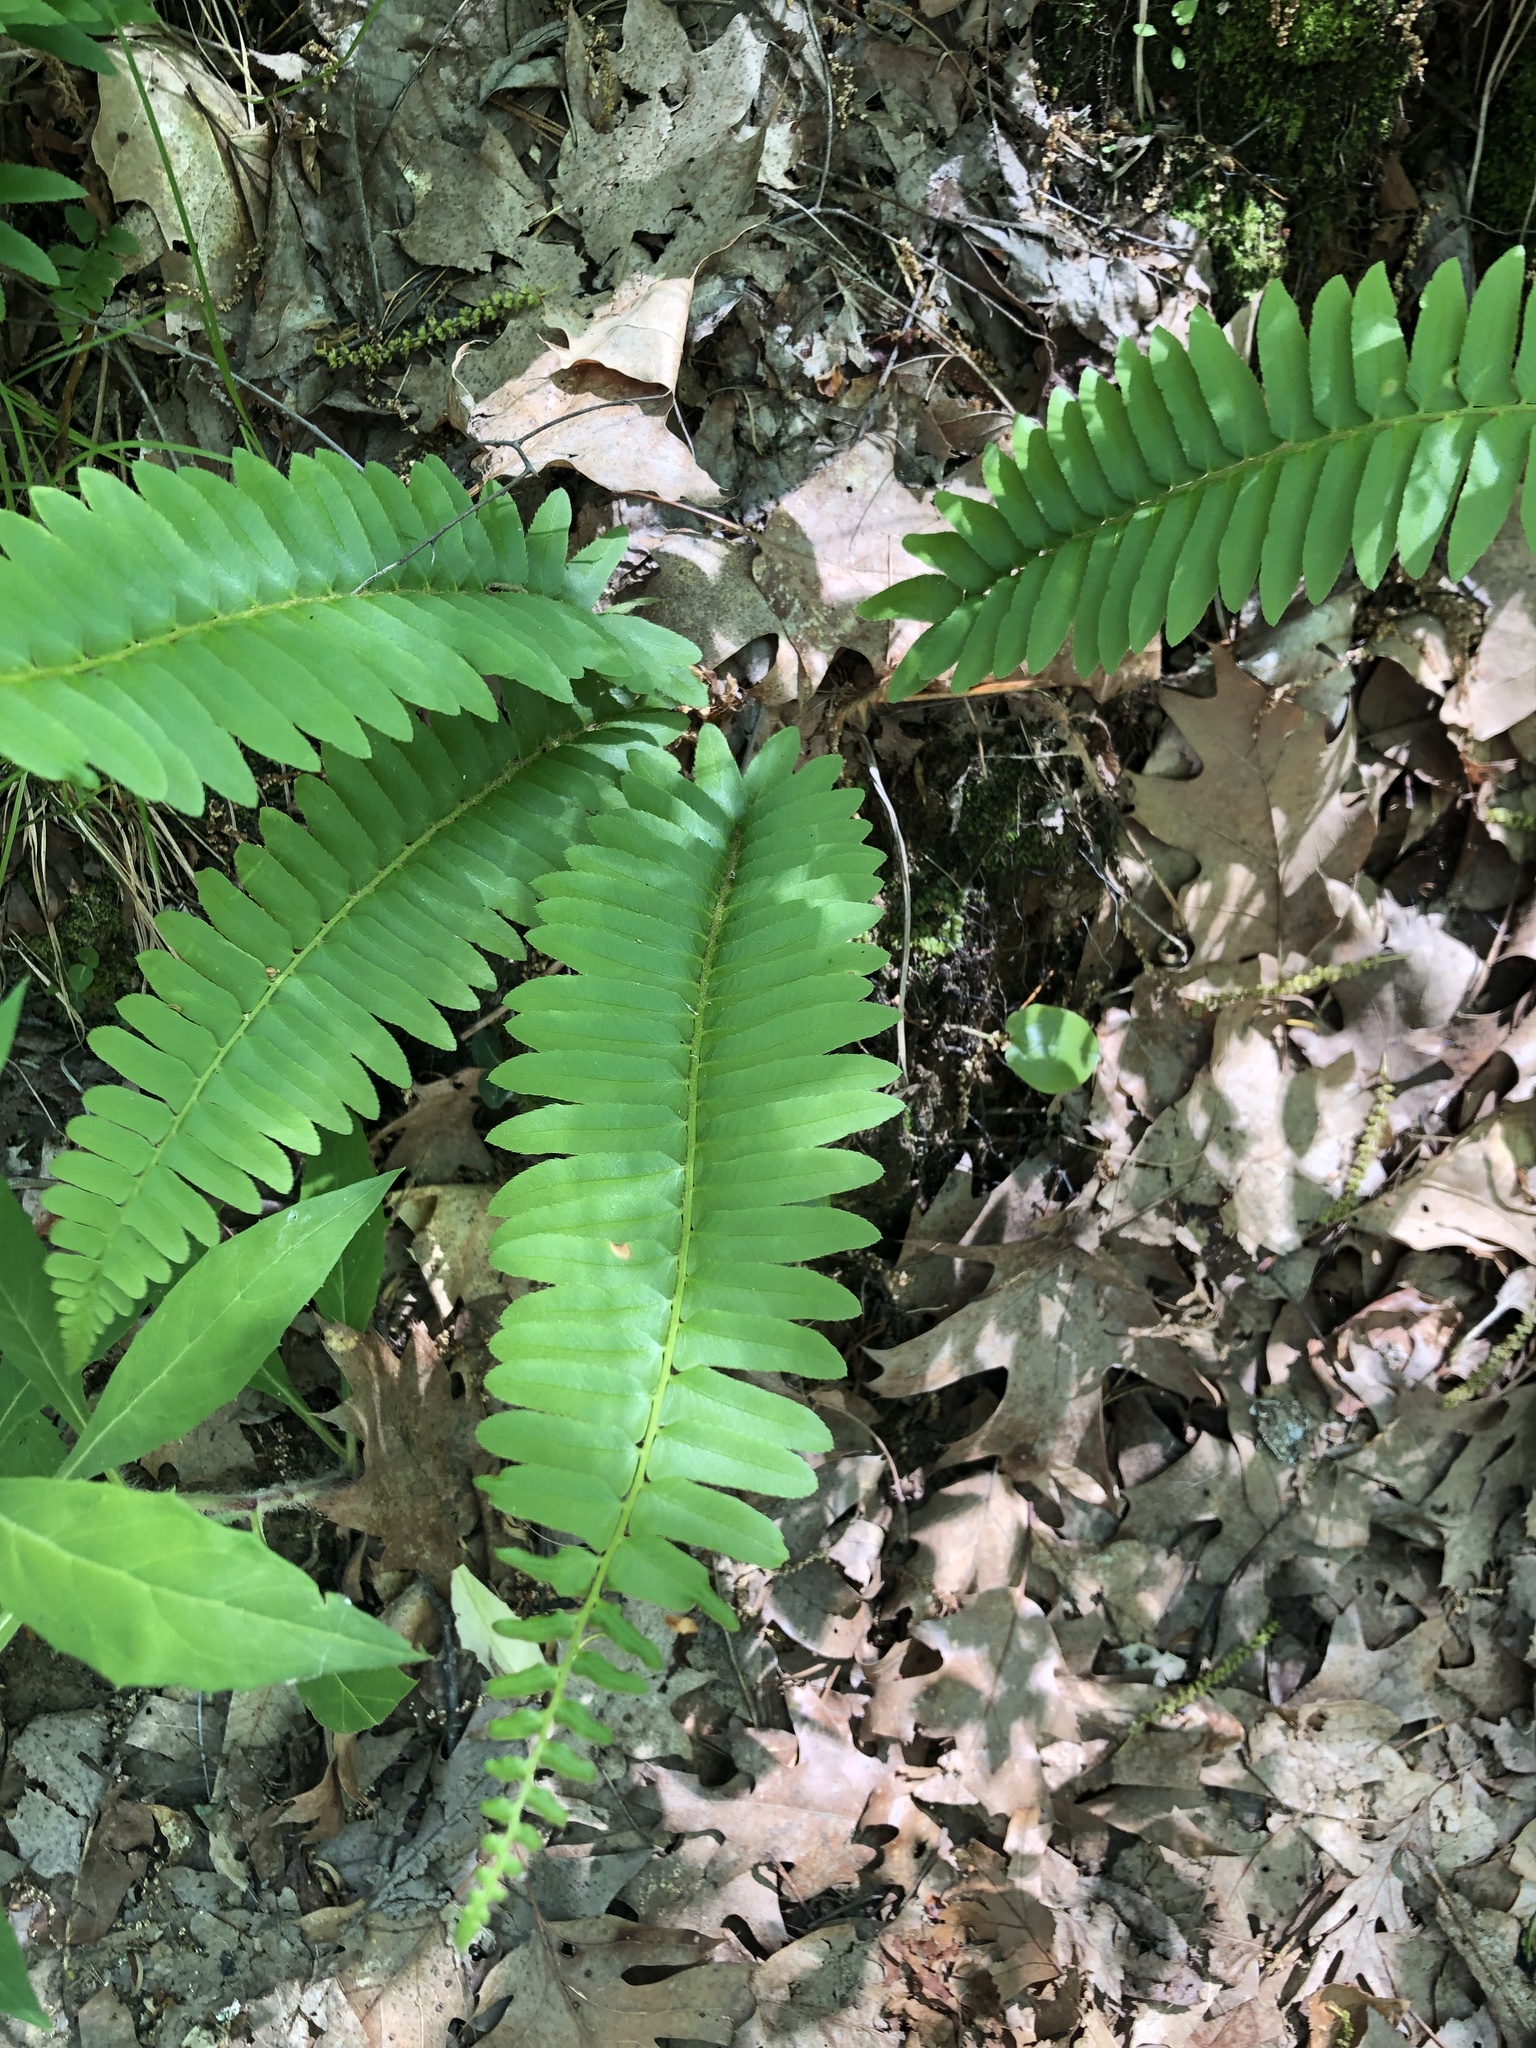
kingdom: Plantae
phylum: Tracheophyta
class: Polypodiopsida
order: Polypodiales
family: Dryopteridaceae
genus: Polystichum
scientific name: Polystichum acrostichoides
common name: Christmas fern
